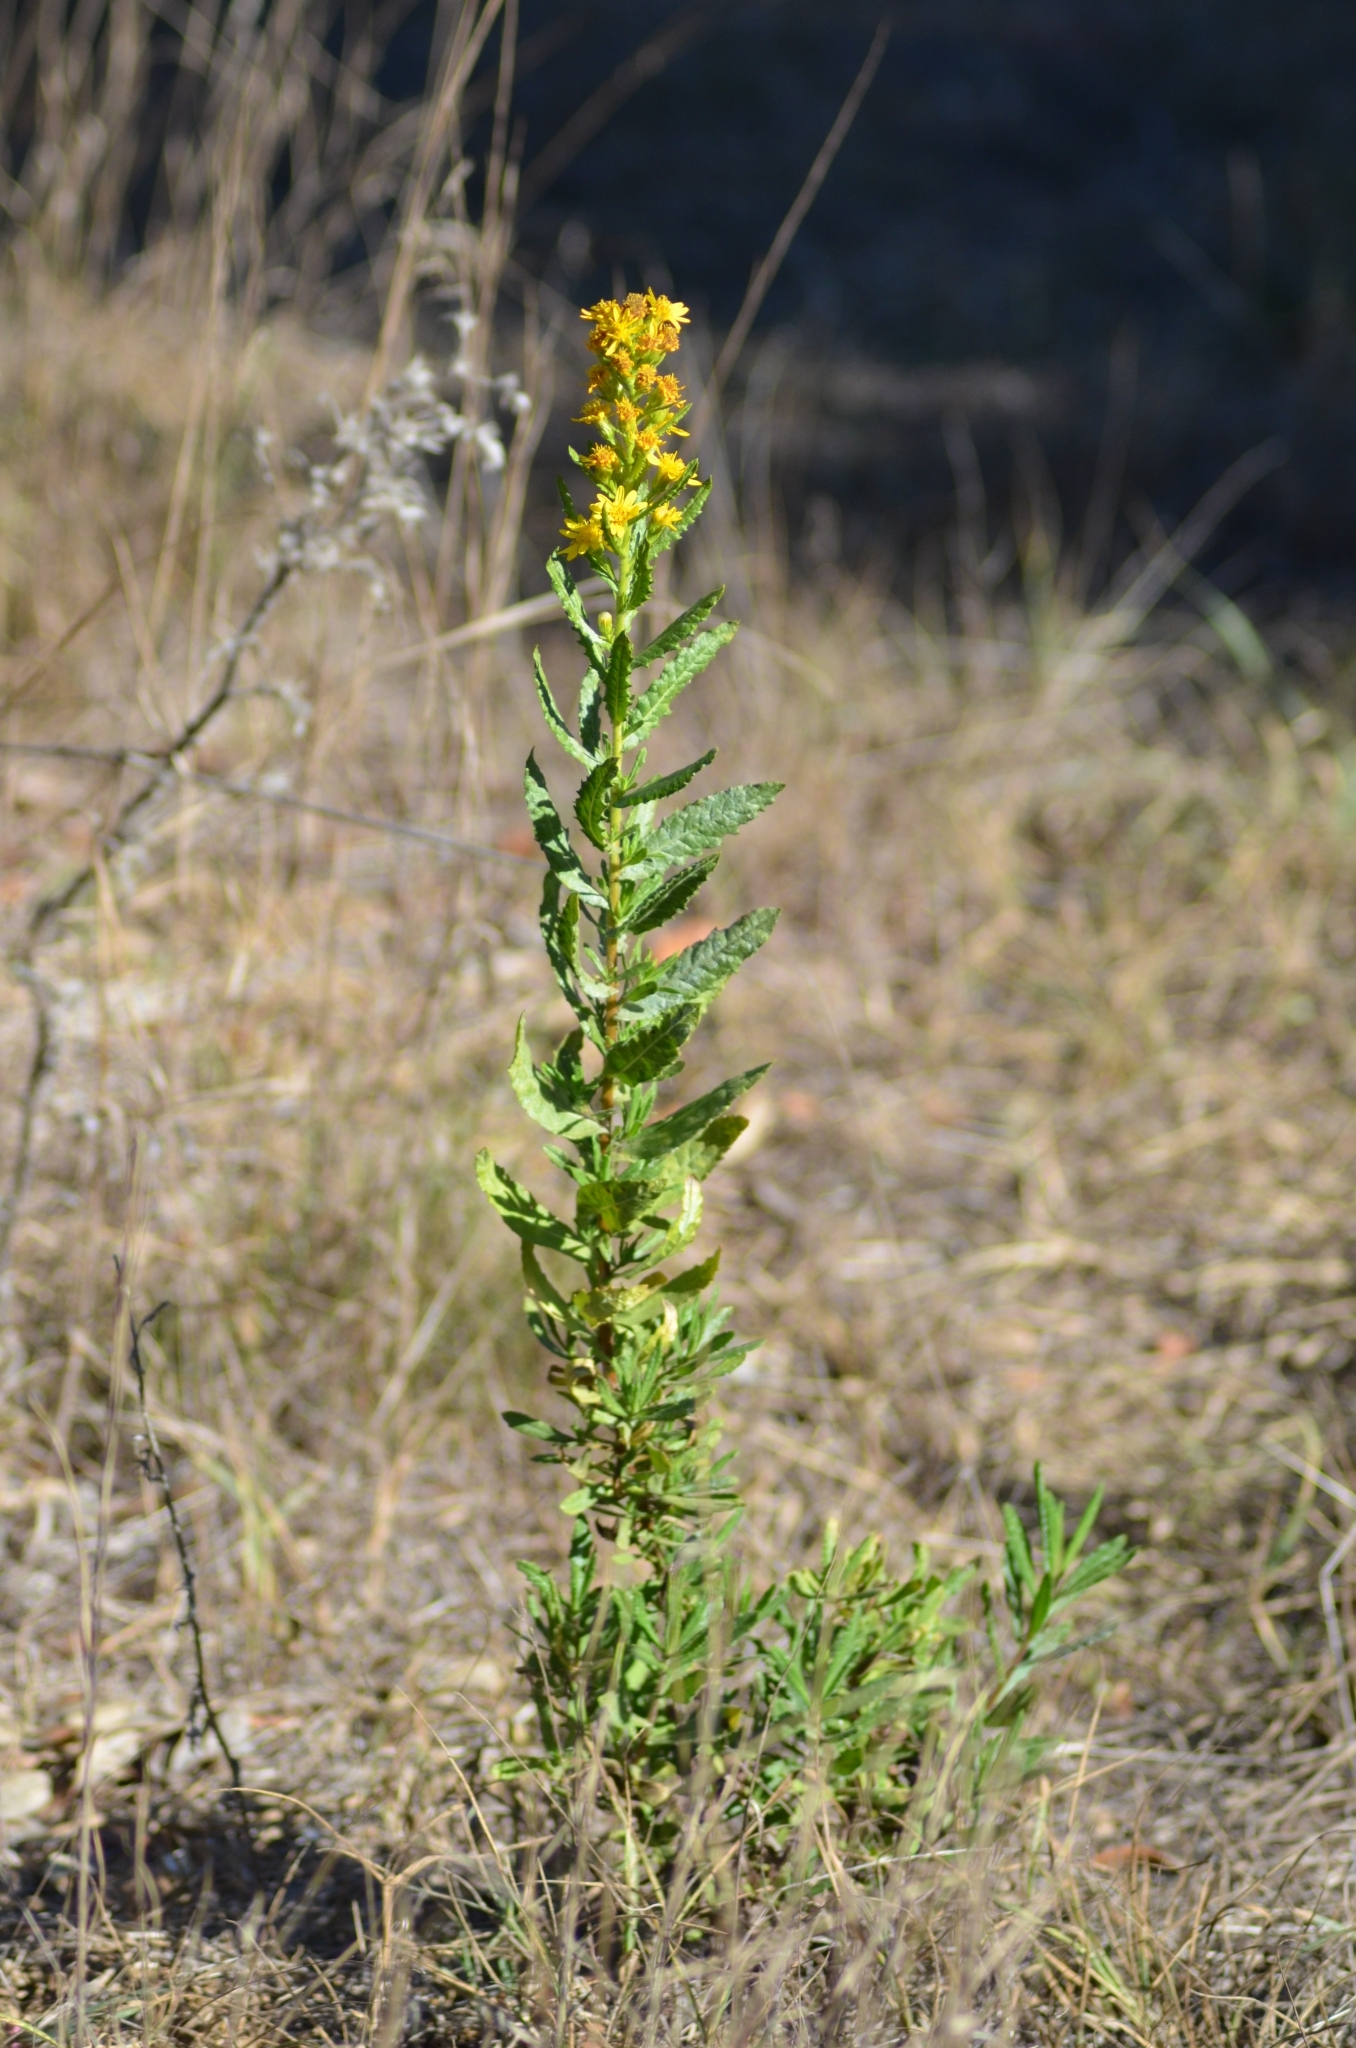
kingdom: Plantae
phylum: Tracheophyta
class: Magnoliopsida
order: Asterales
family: Asteraceae
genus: Dittrichia
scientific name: Dittrichia viscosa
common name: Woody fleabane
